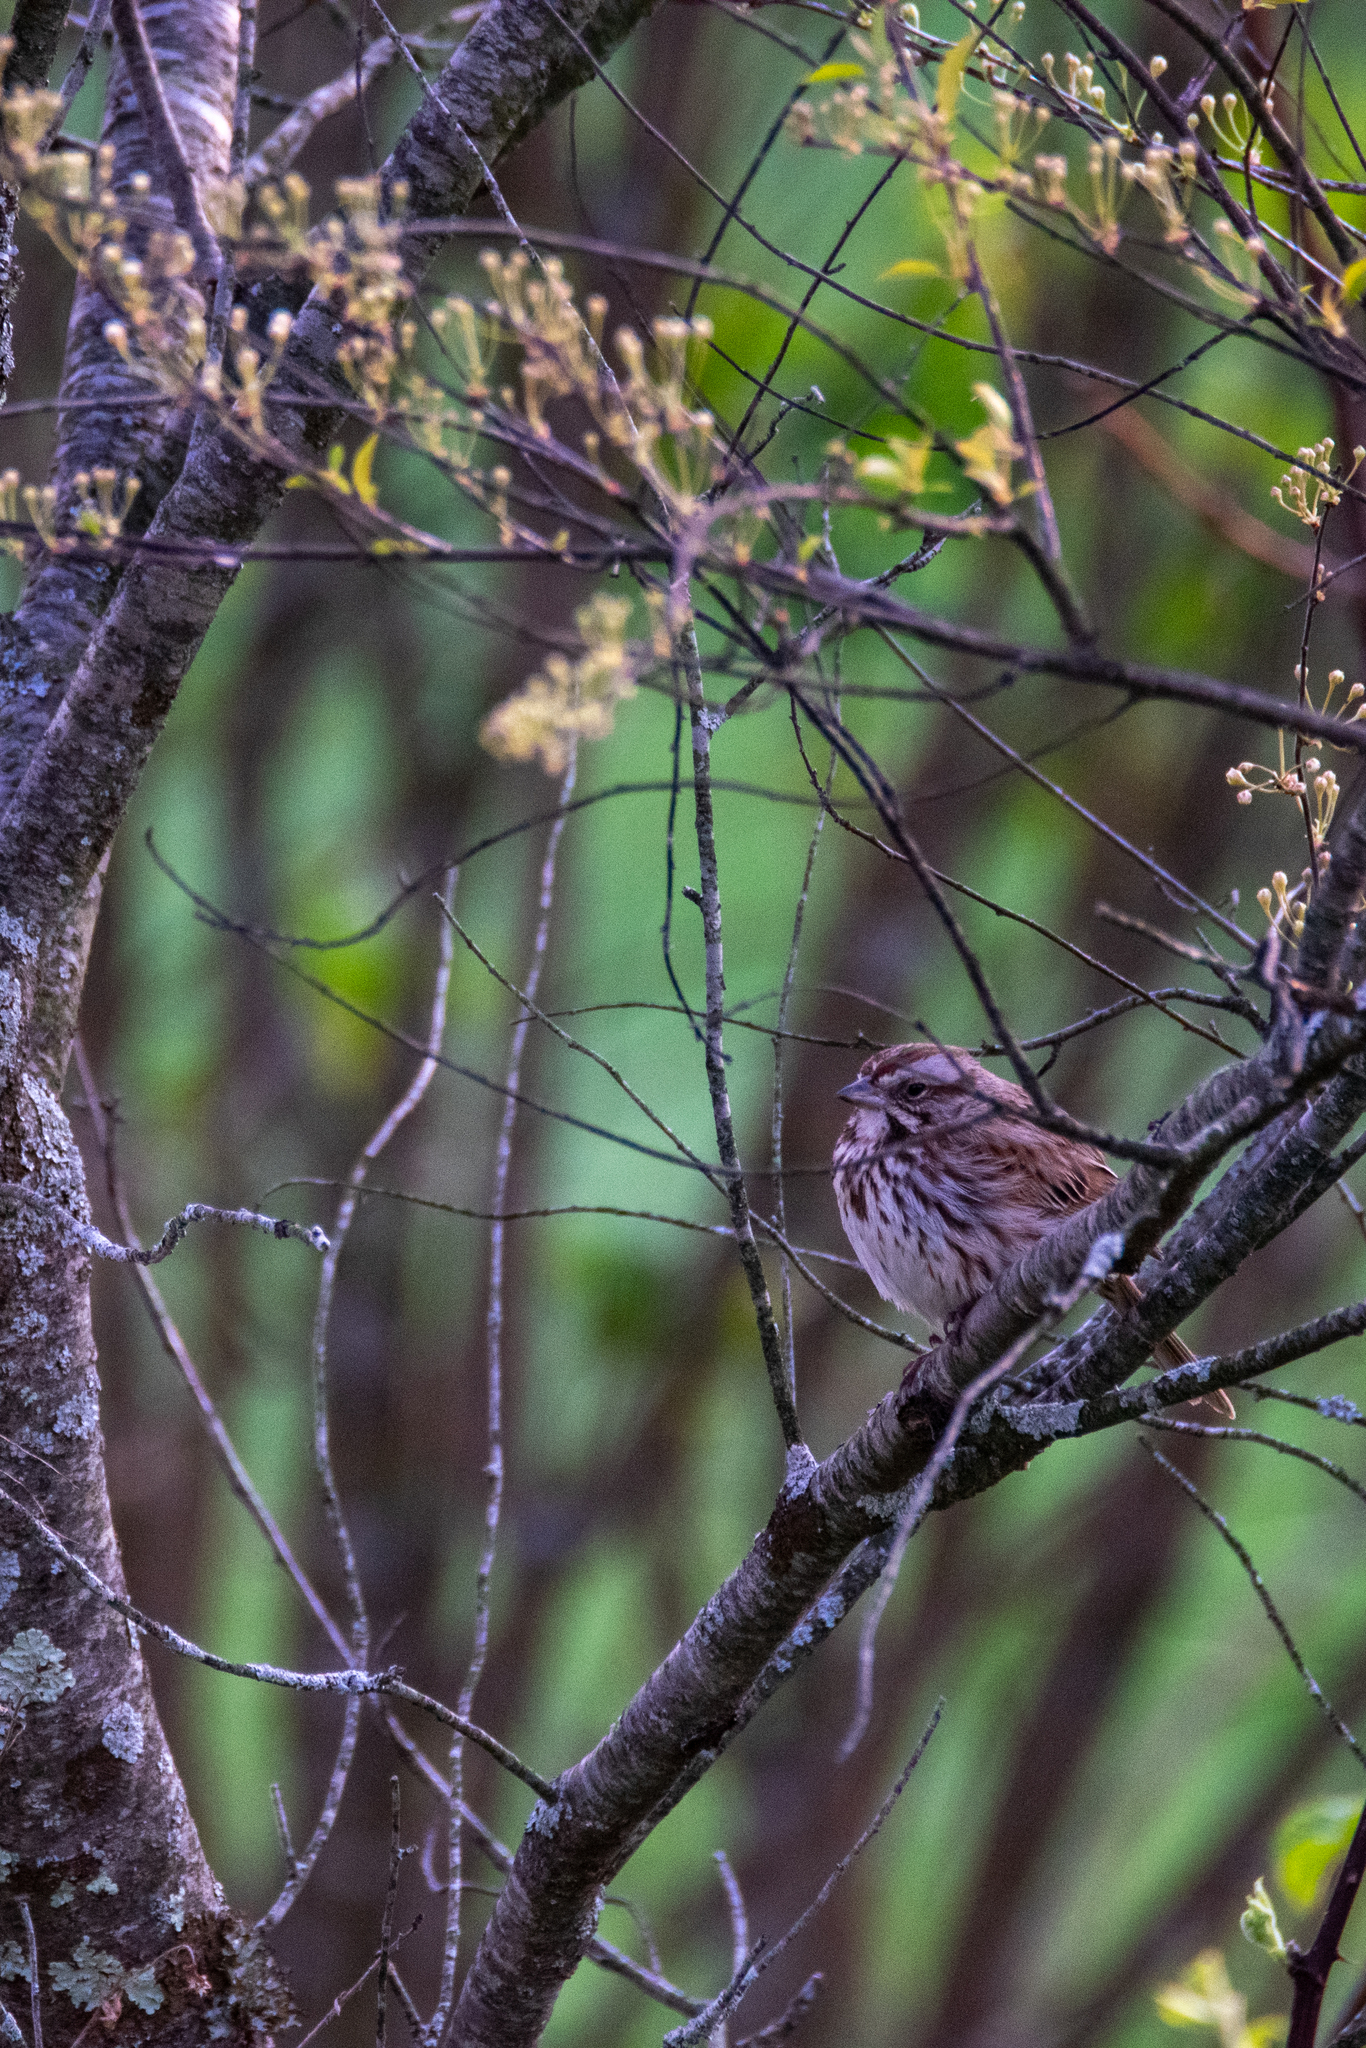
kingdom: Animalia
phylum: Chordata
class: Aves
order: Passeriformes
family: Passerellidae
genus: Melospiza
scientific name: Melospiza melodia
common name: Song sparrow
